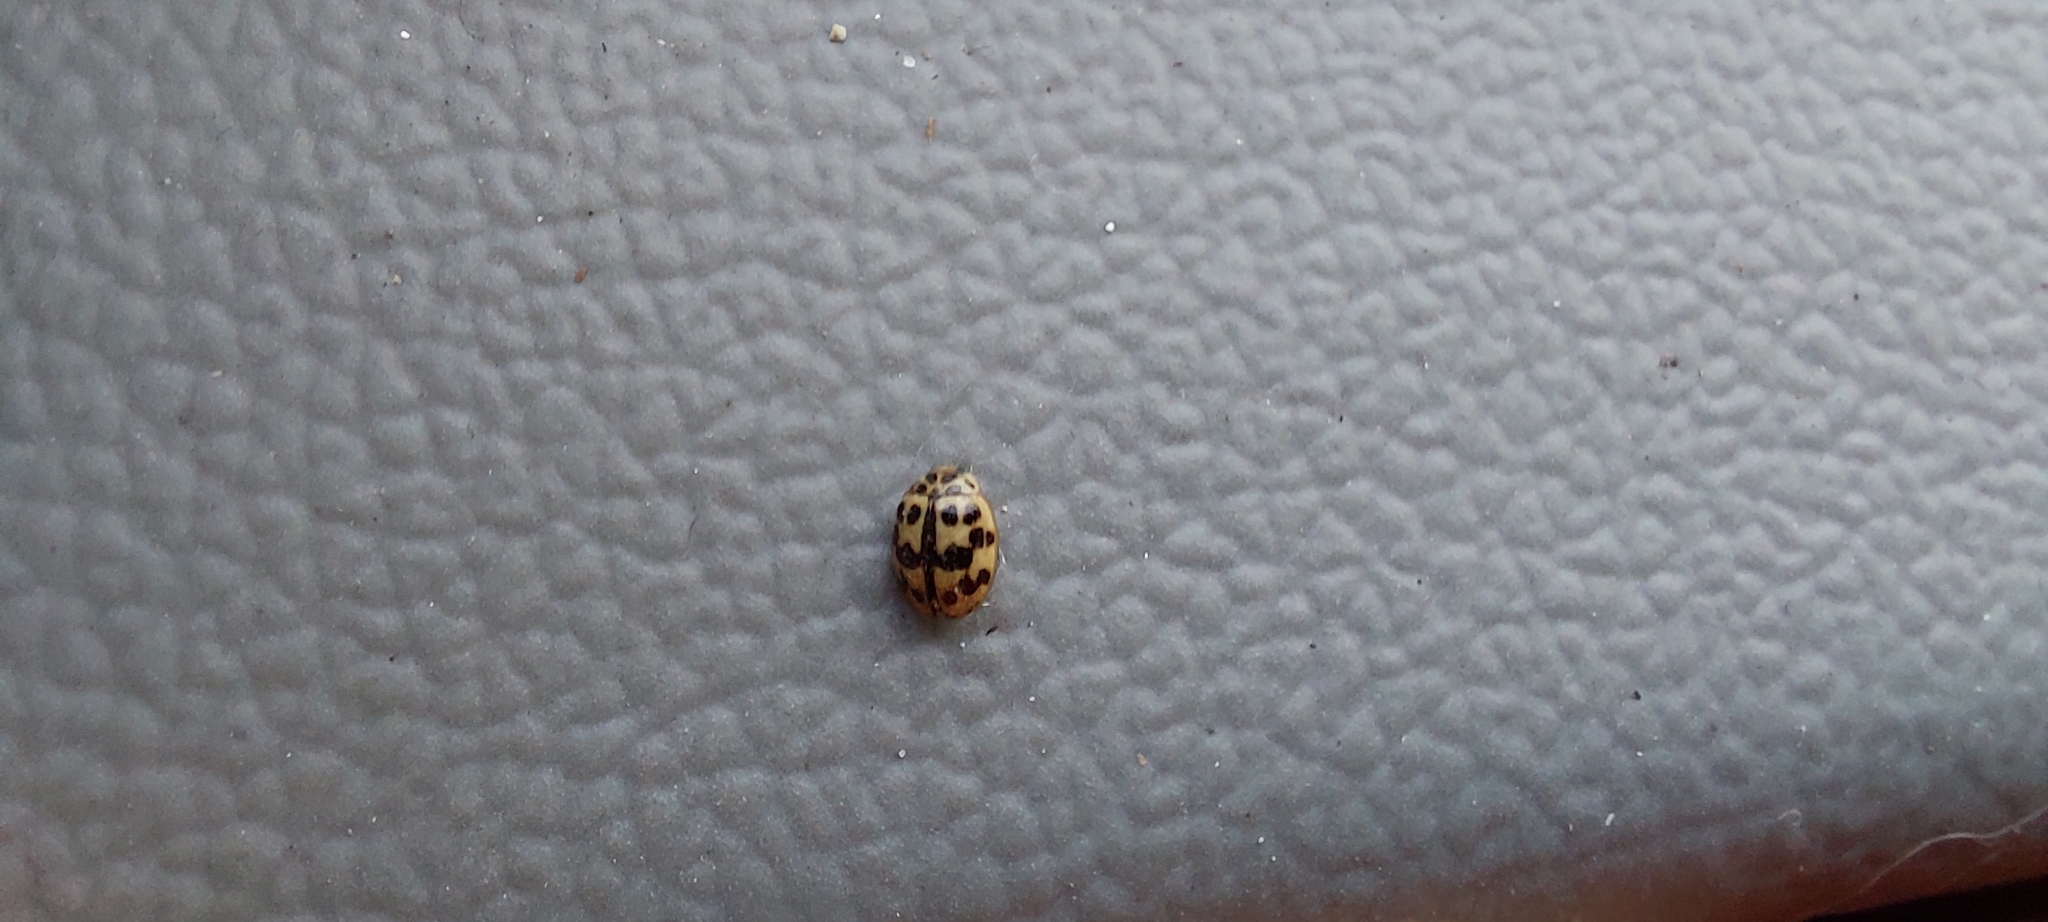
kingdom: Animalia
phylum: Arthropoda
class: Insecta
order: Coleoptera
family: Coccinellidae
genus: Oenopia
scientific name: Oenopia conglobata
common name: Ladybird beetle
